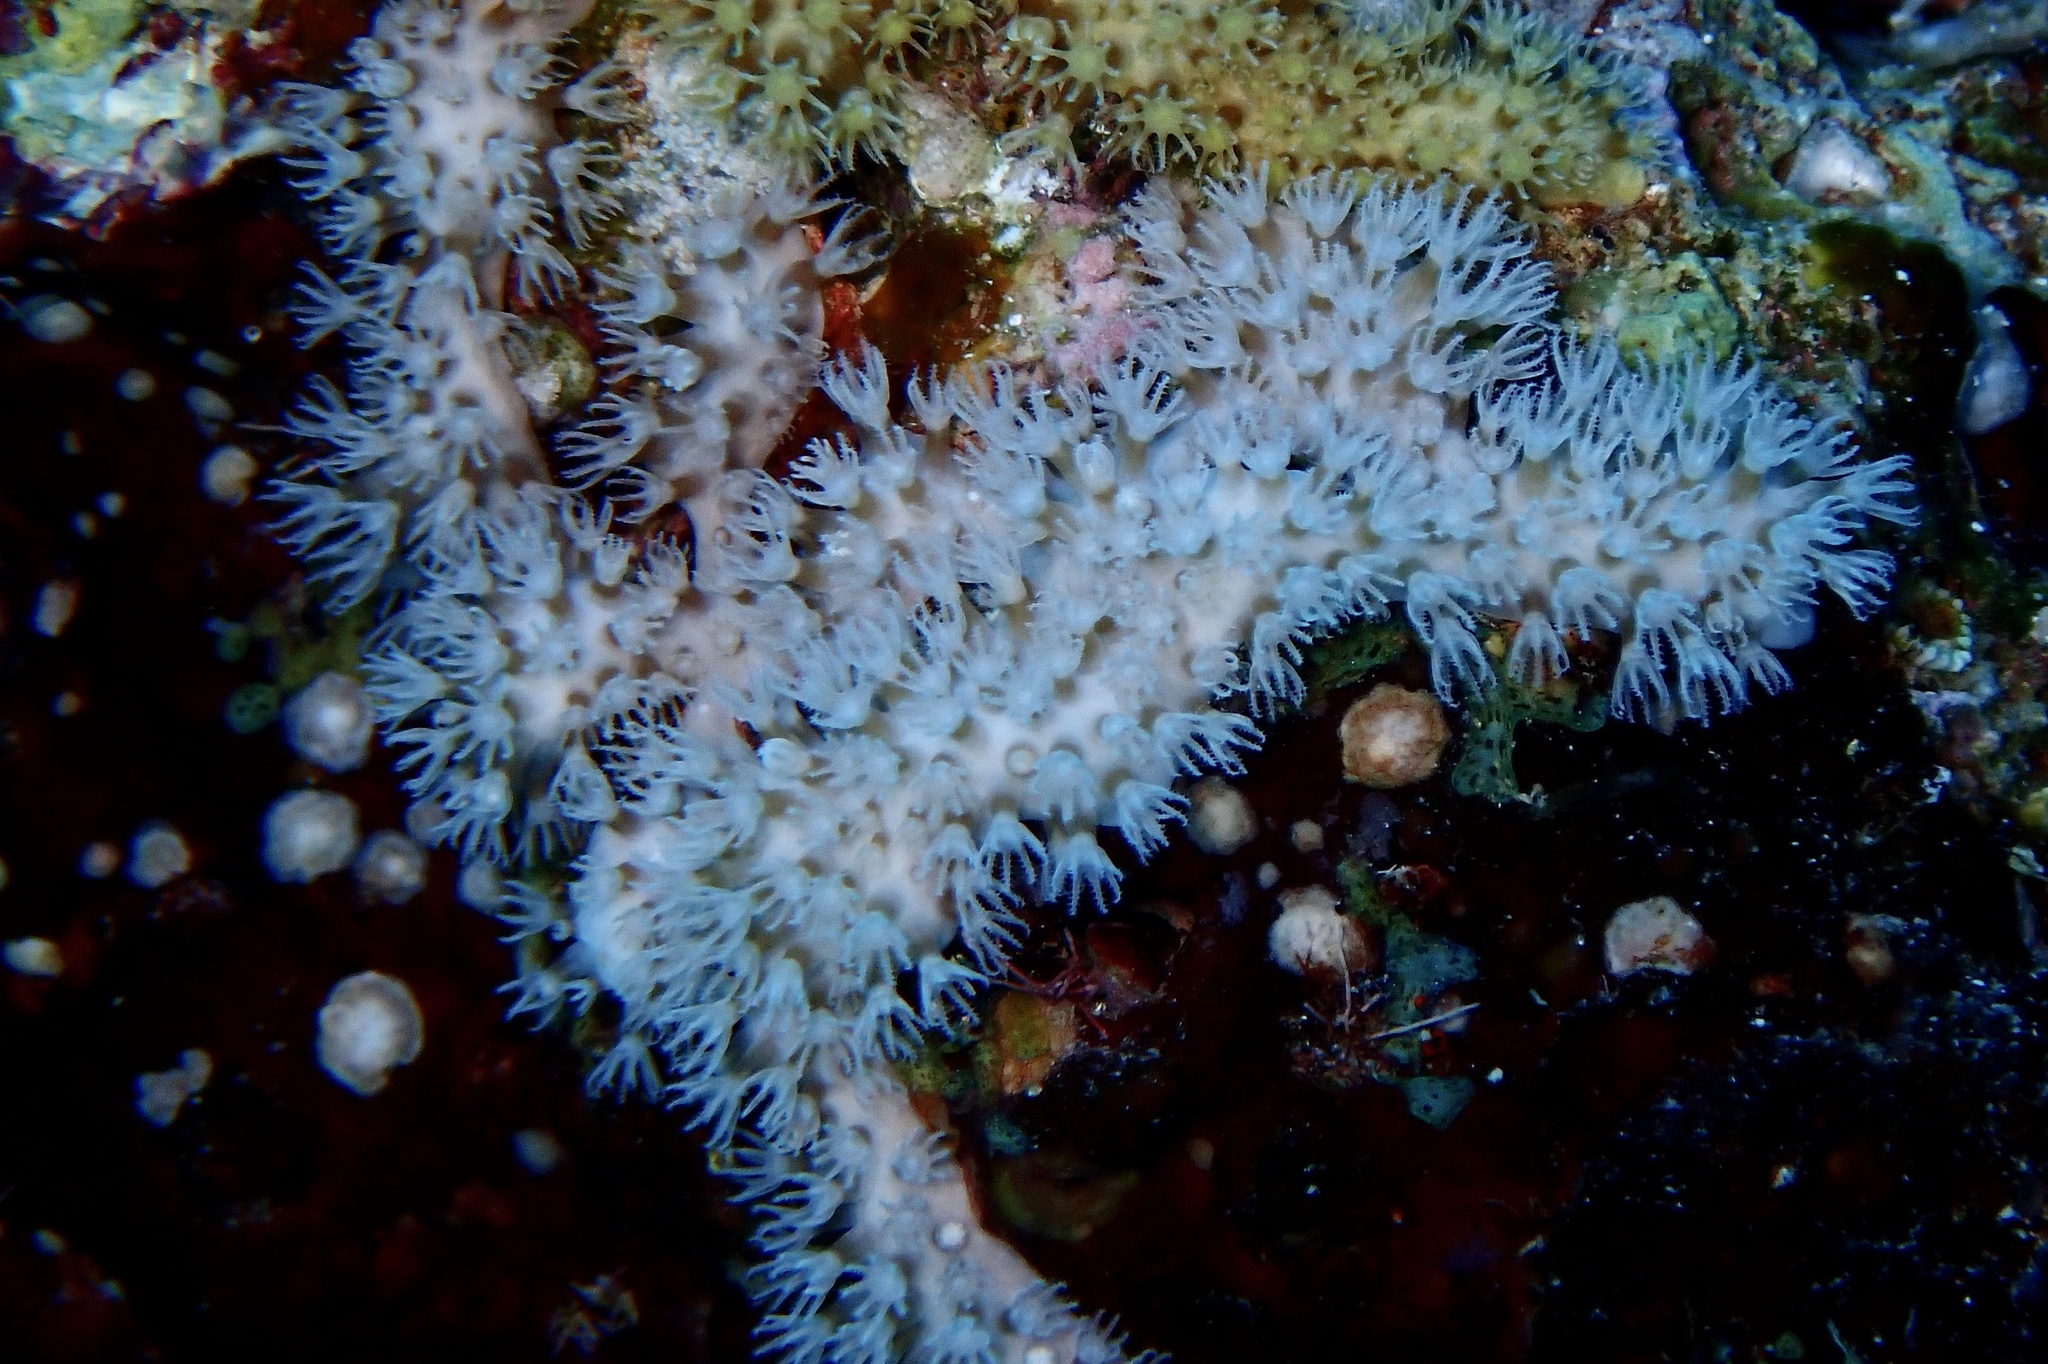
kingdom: Animalia
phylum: Cnidaria
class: Anthozoa
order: Malacalcyonacea
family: Lemnaliadae
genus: Rhytisma
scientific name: Rhytisma fulvum
